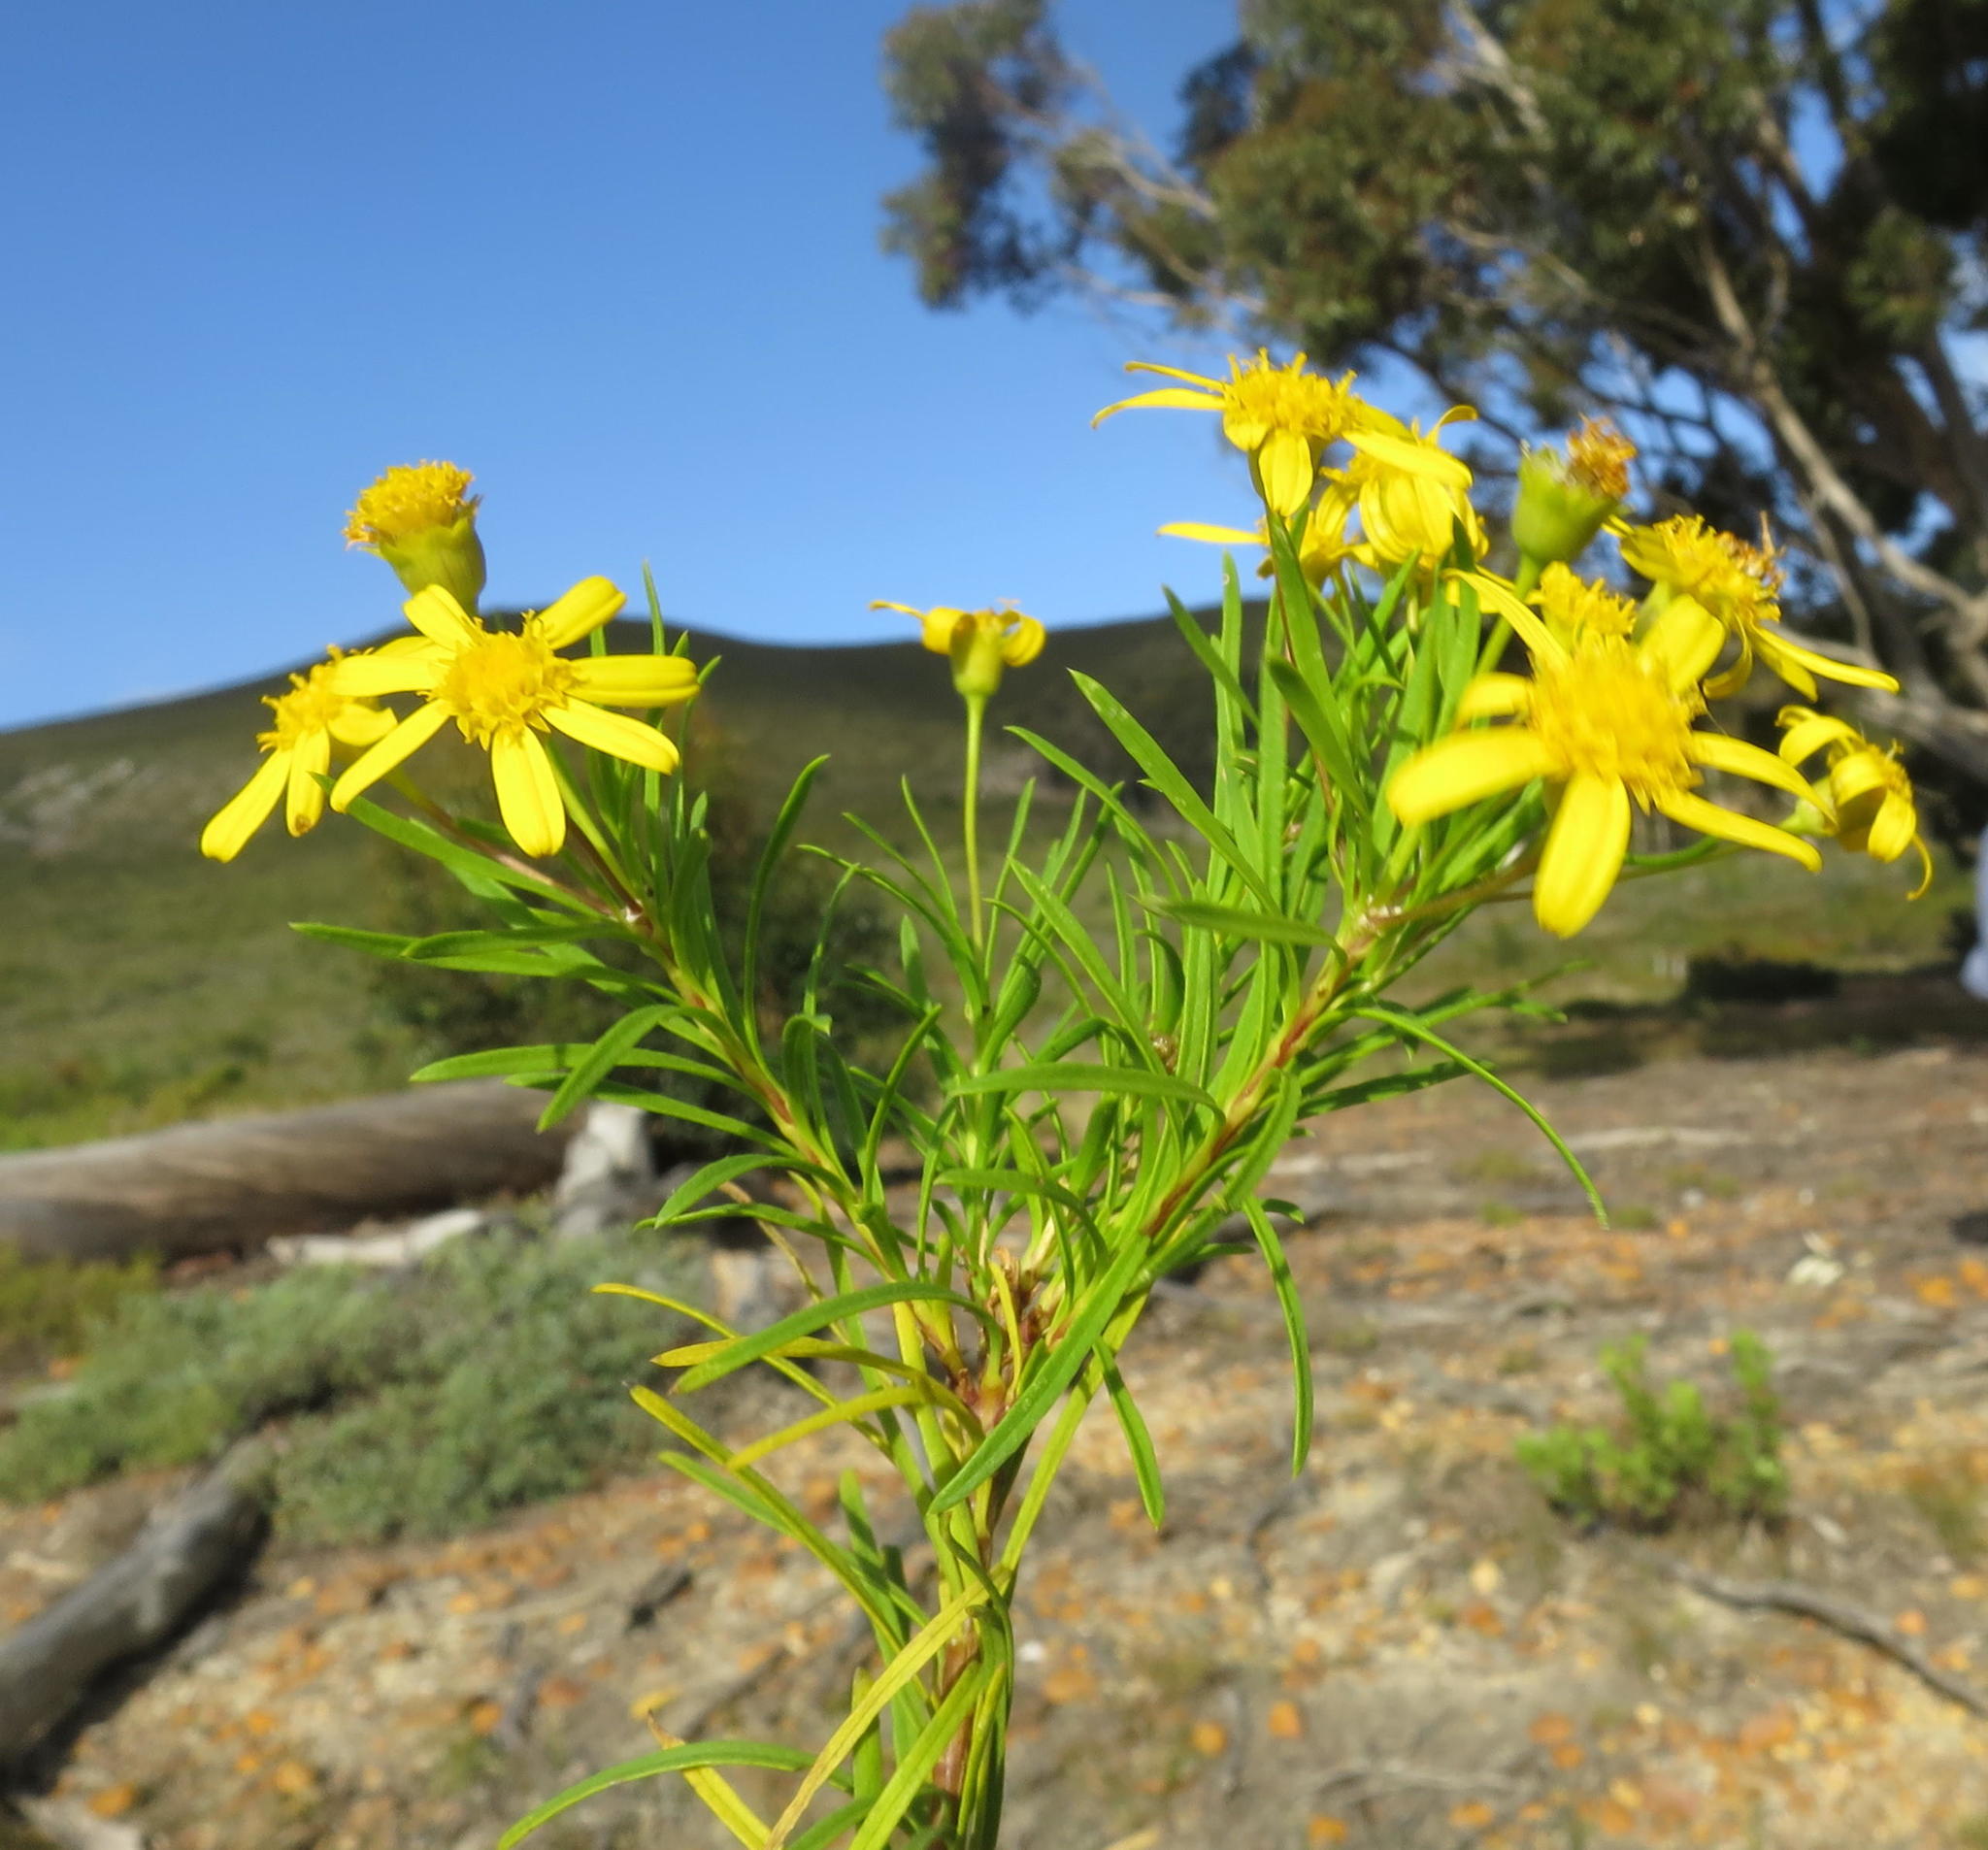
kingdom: Plantae
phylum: Tracheophyta
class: Magnoliopsida
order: Asterales
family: Asteraceae
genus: Euryops
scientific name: Euryops linearis
